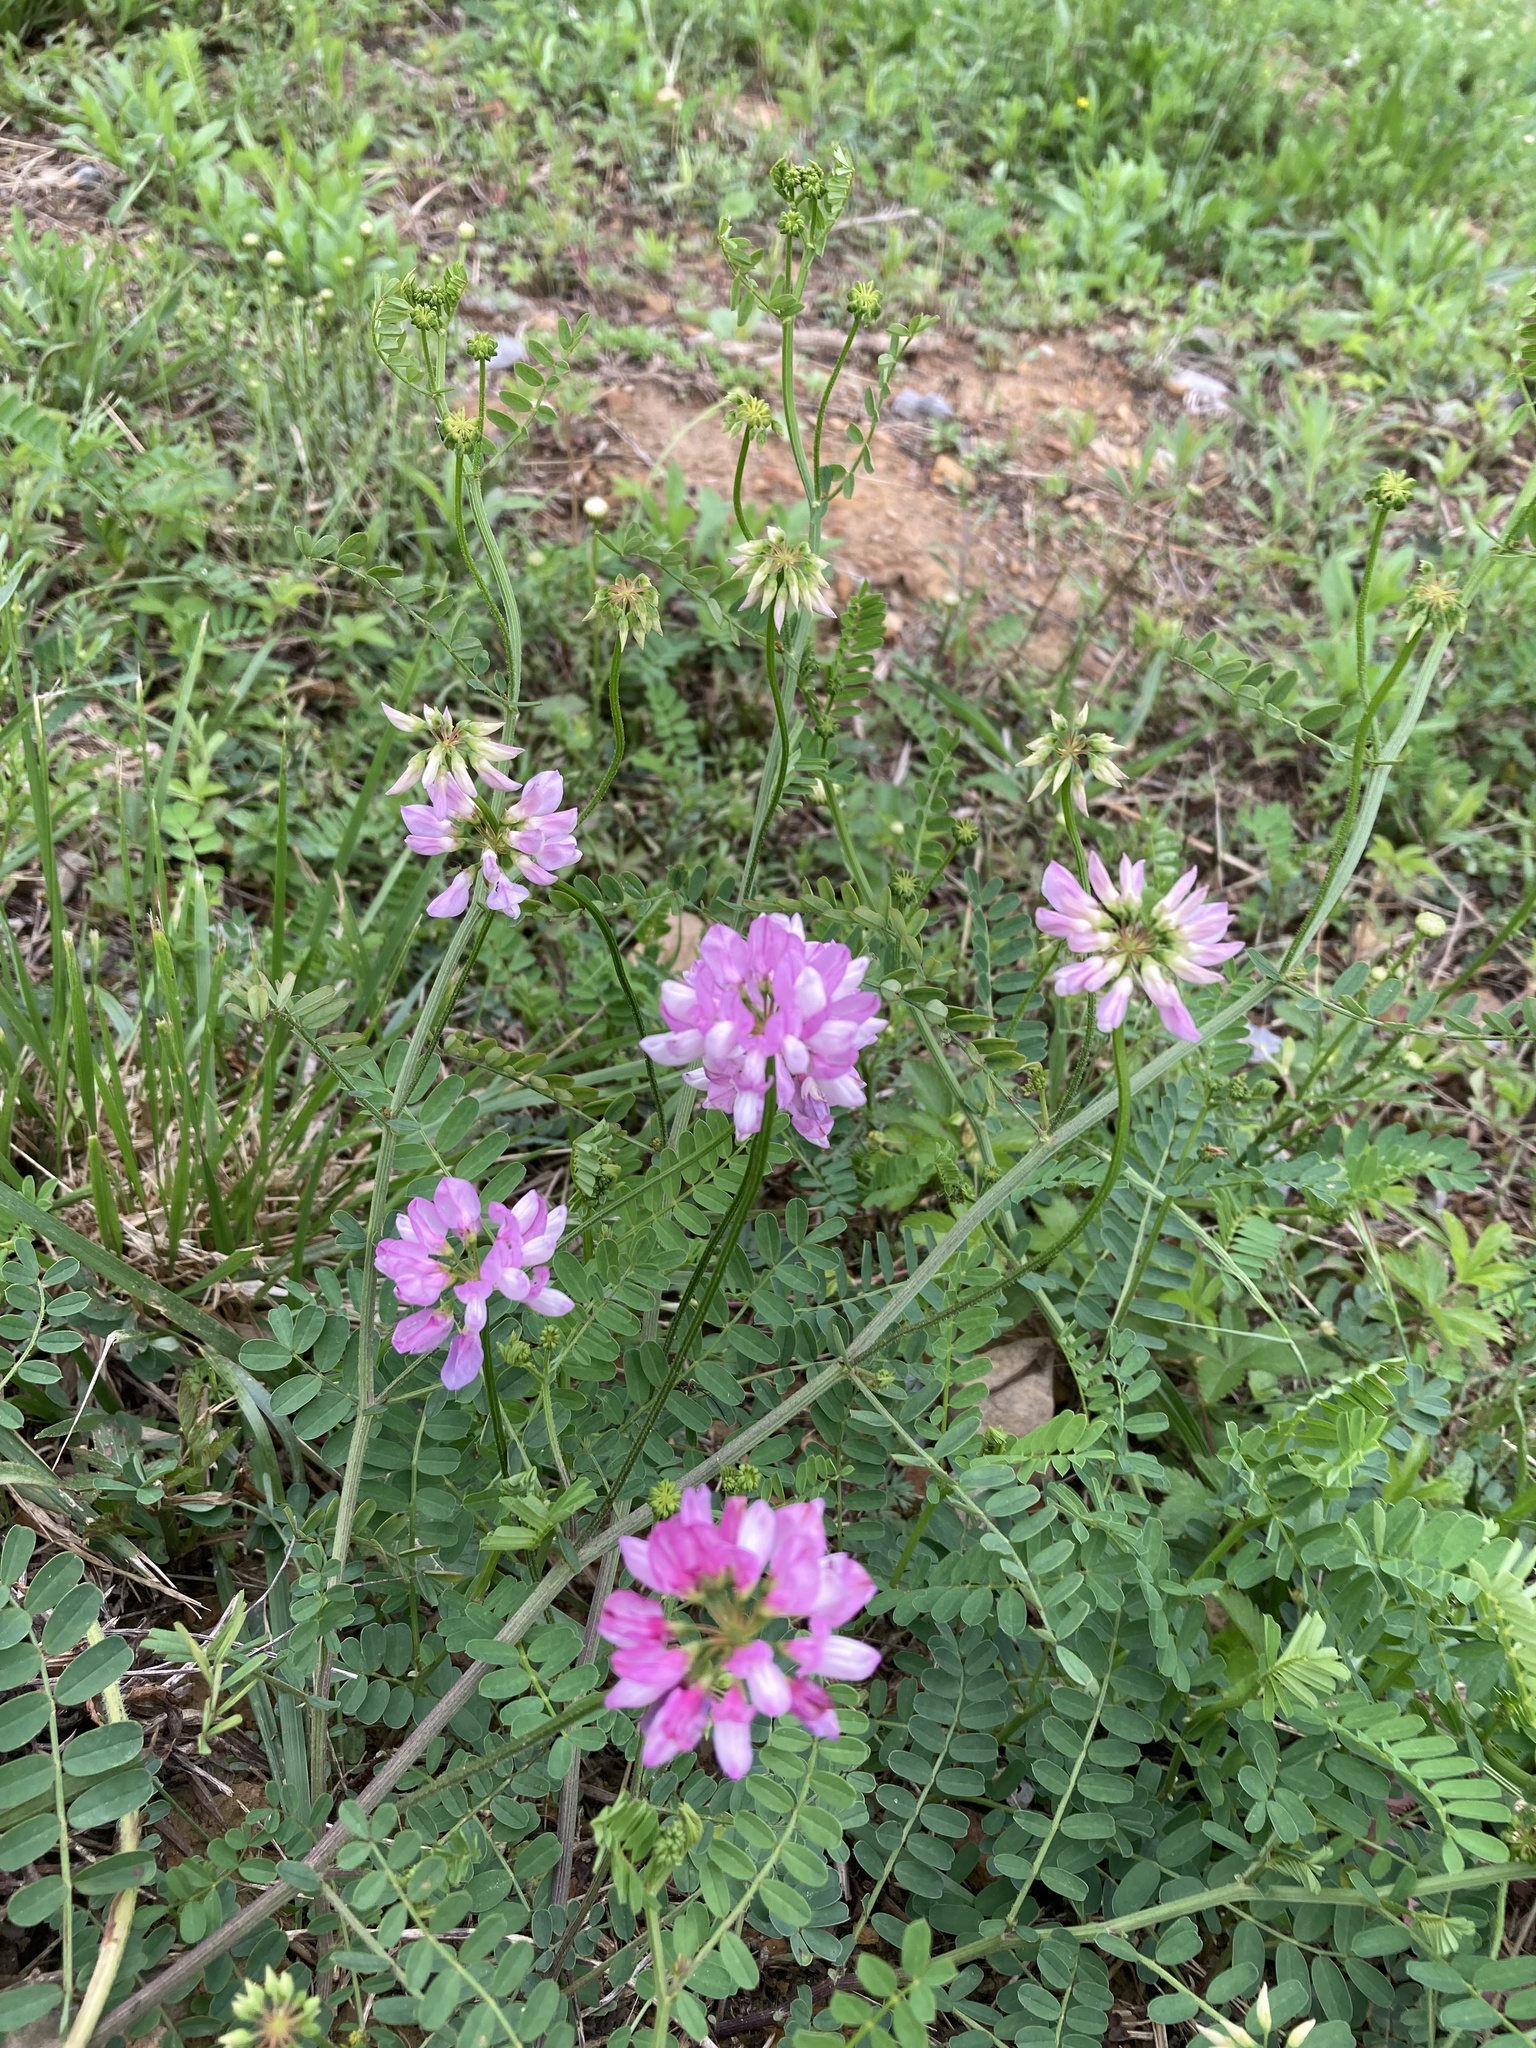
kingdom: Plantae
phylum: Tracheophyta
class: Magnoliopsida
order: Fabales
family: Fabaceae
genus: Coronilla
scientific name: Coronilla varia
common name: Crownvetch
